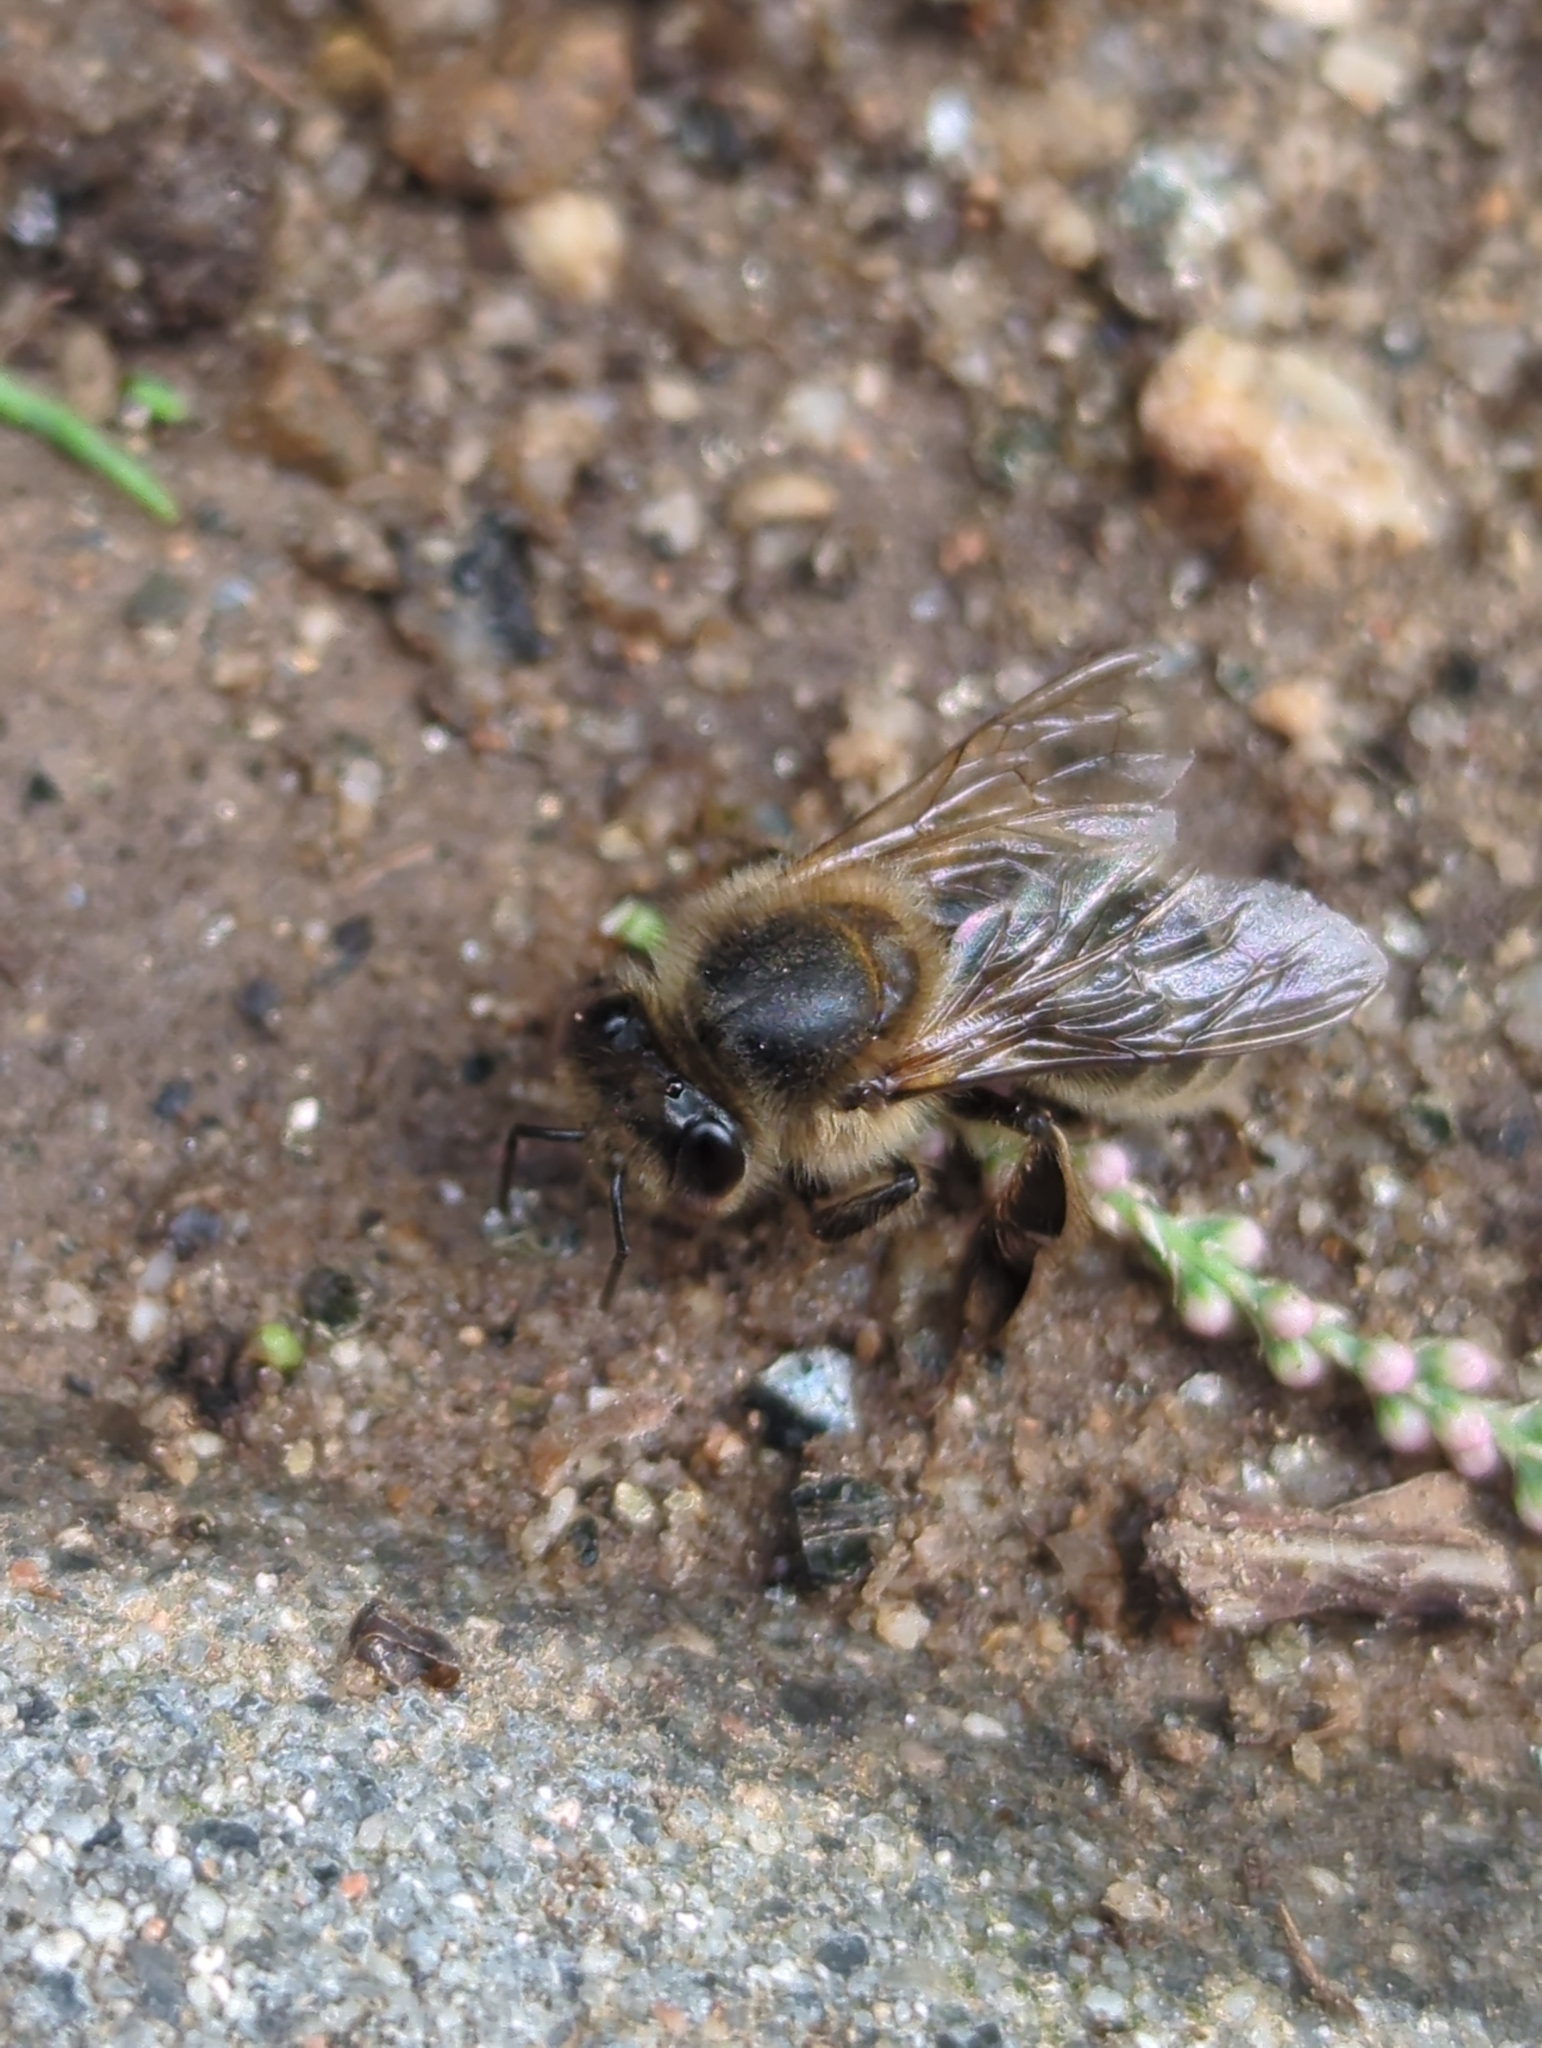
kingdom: Animalia
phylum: Arthropoda
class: Insecta
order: Hymenoptera
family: Apidae
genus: Apis
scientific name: Apis mellifera
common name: Honey bee
